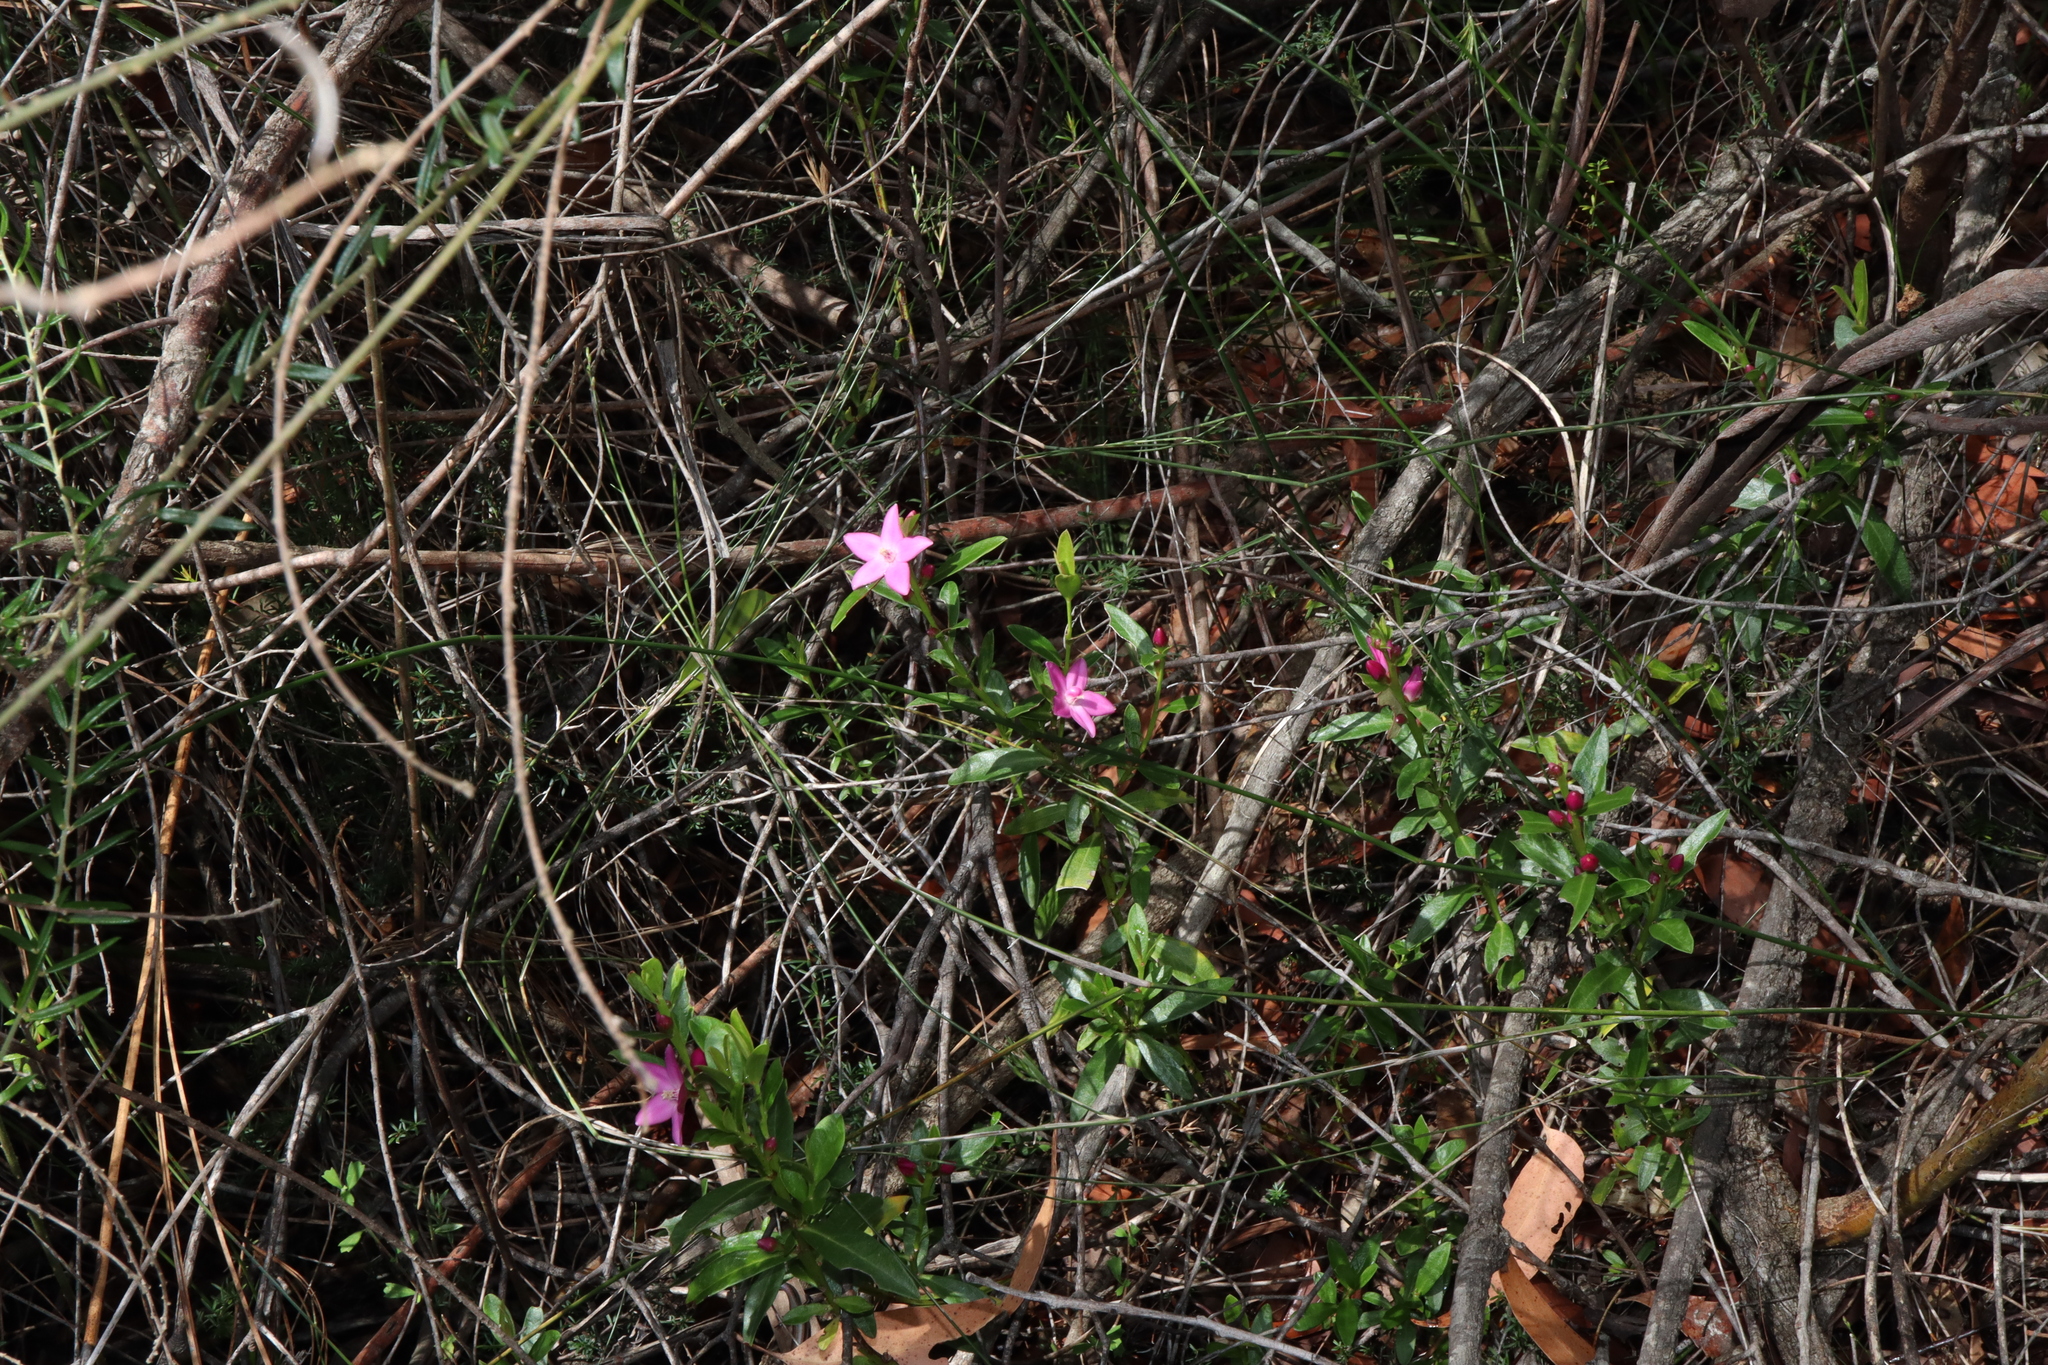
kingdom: Plantae
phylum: Tracheophyta
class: Magnoliopsida
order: Sapindales
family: Rutaceae
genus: Crowea
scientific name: Crowea saligna
